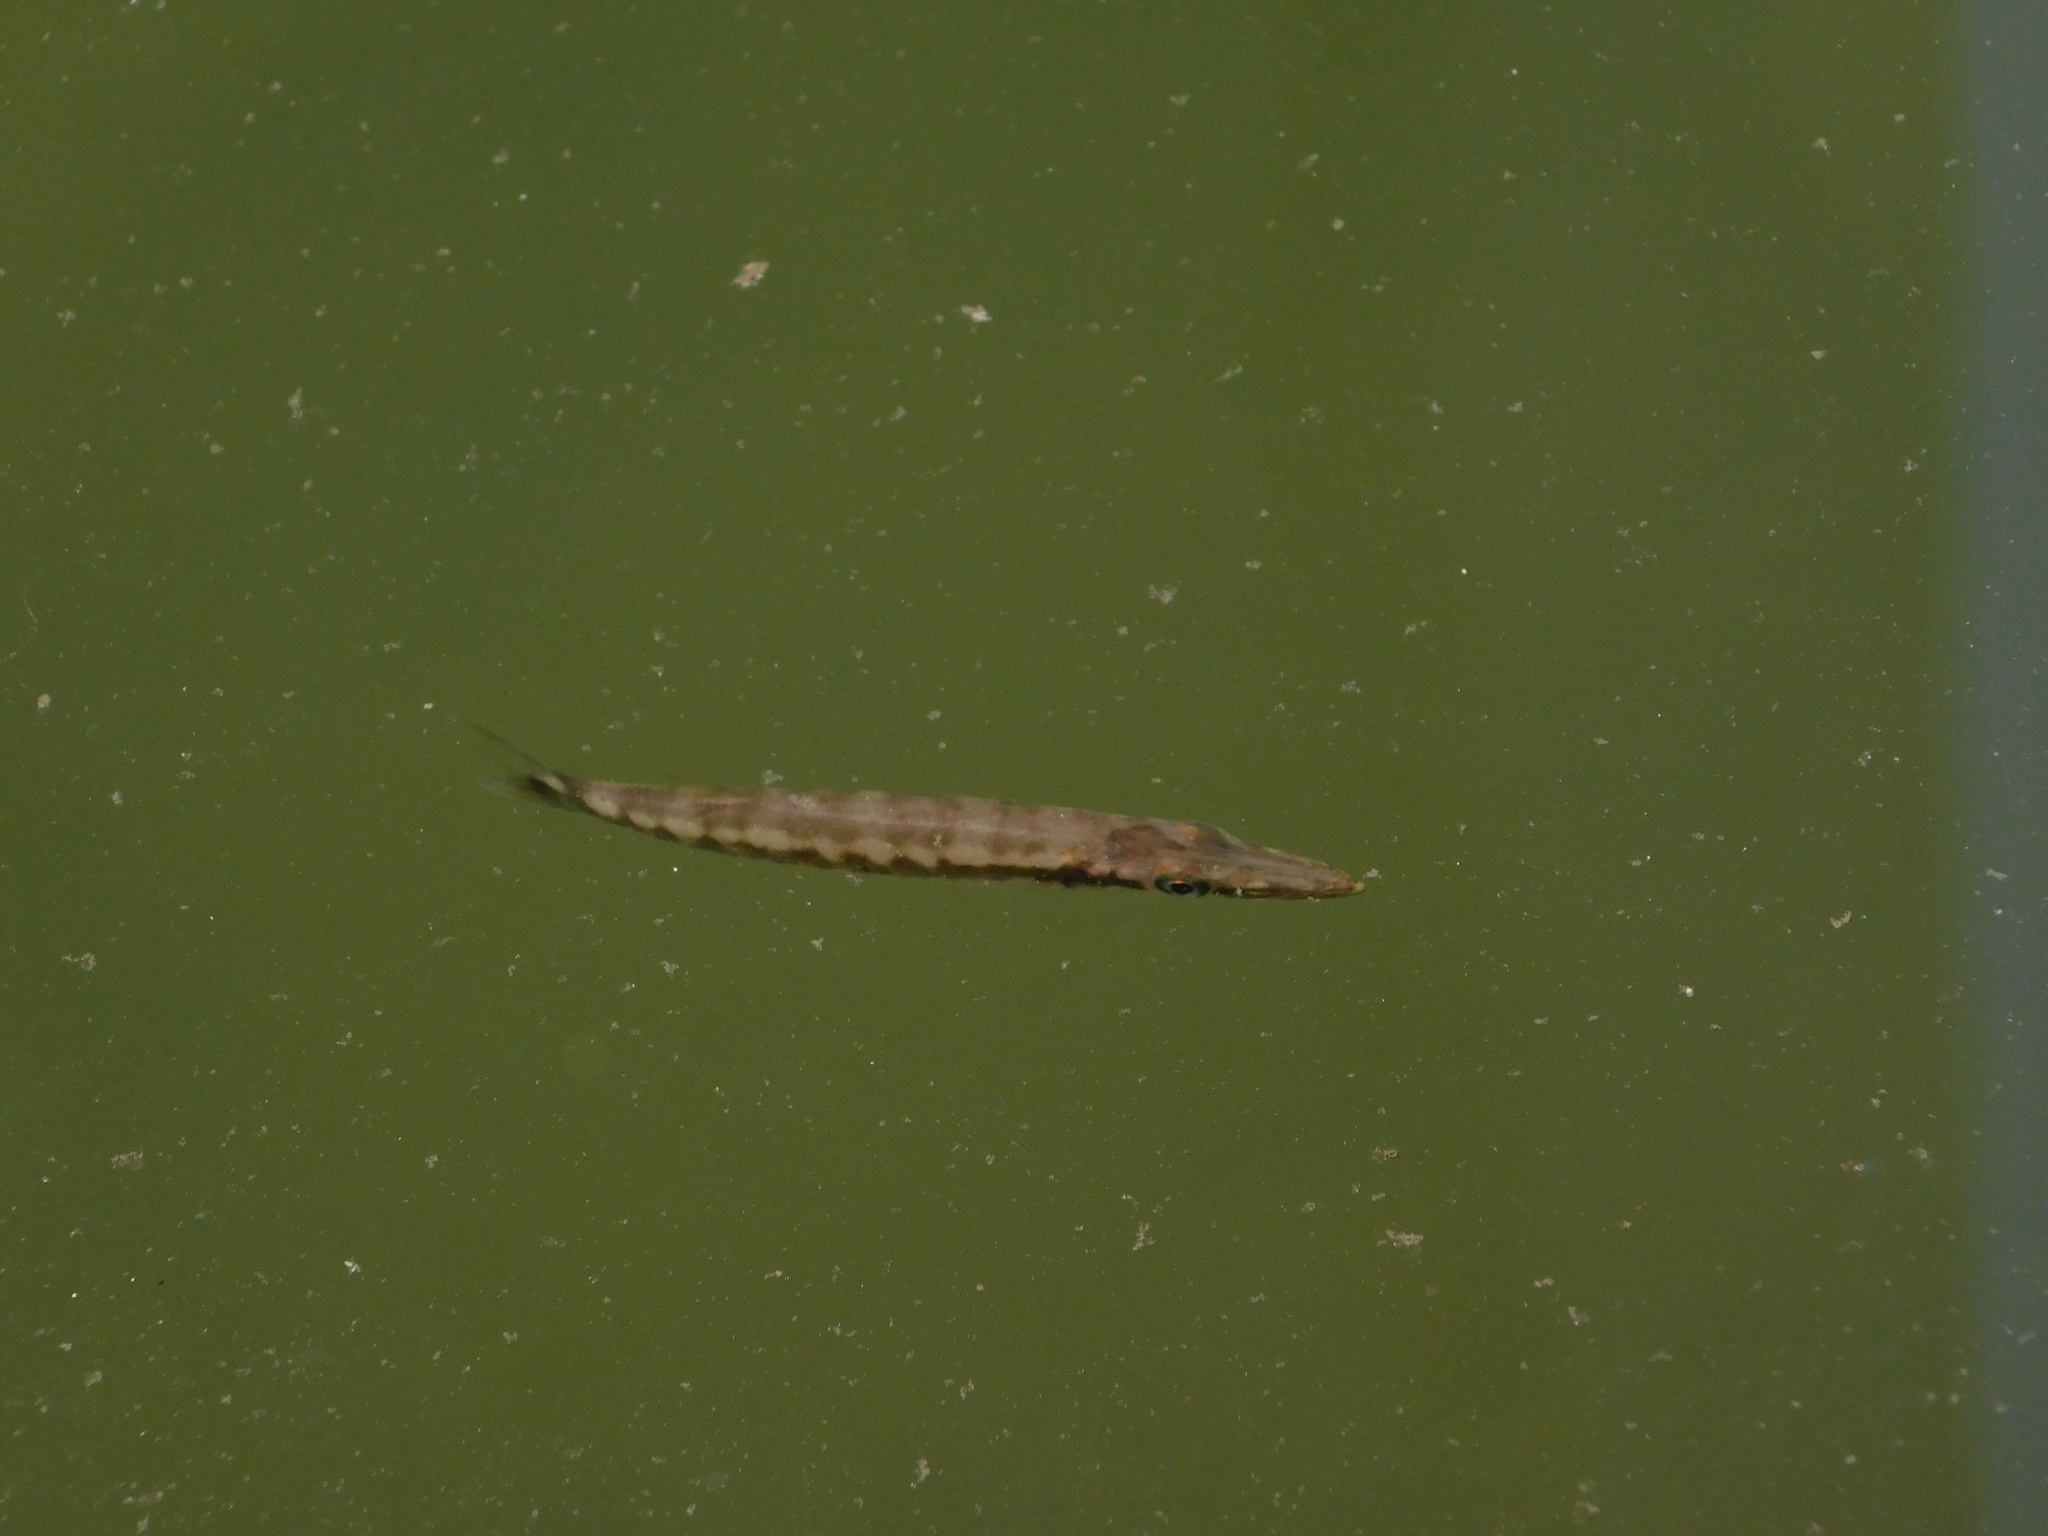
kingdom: Animalia
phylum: Chordata
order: Perciformes
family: Sphyraenidae
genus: Sphyraena
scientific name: Sphyraena barracuda
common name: Great barracuda
